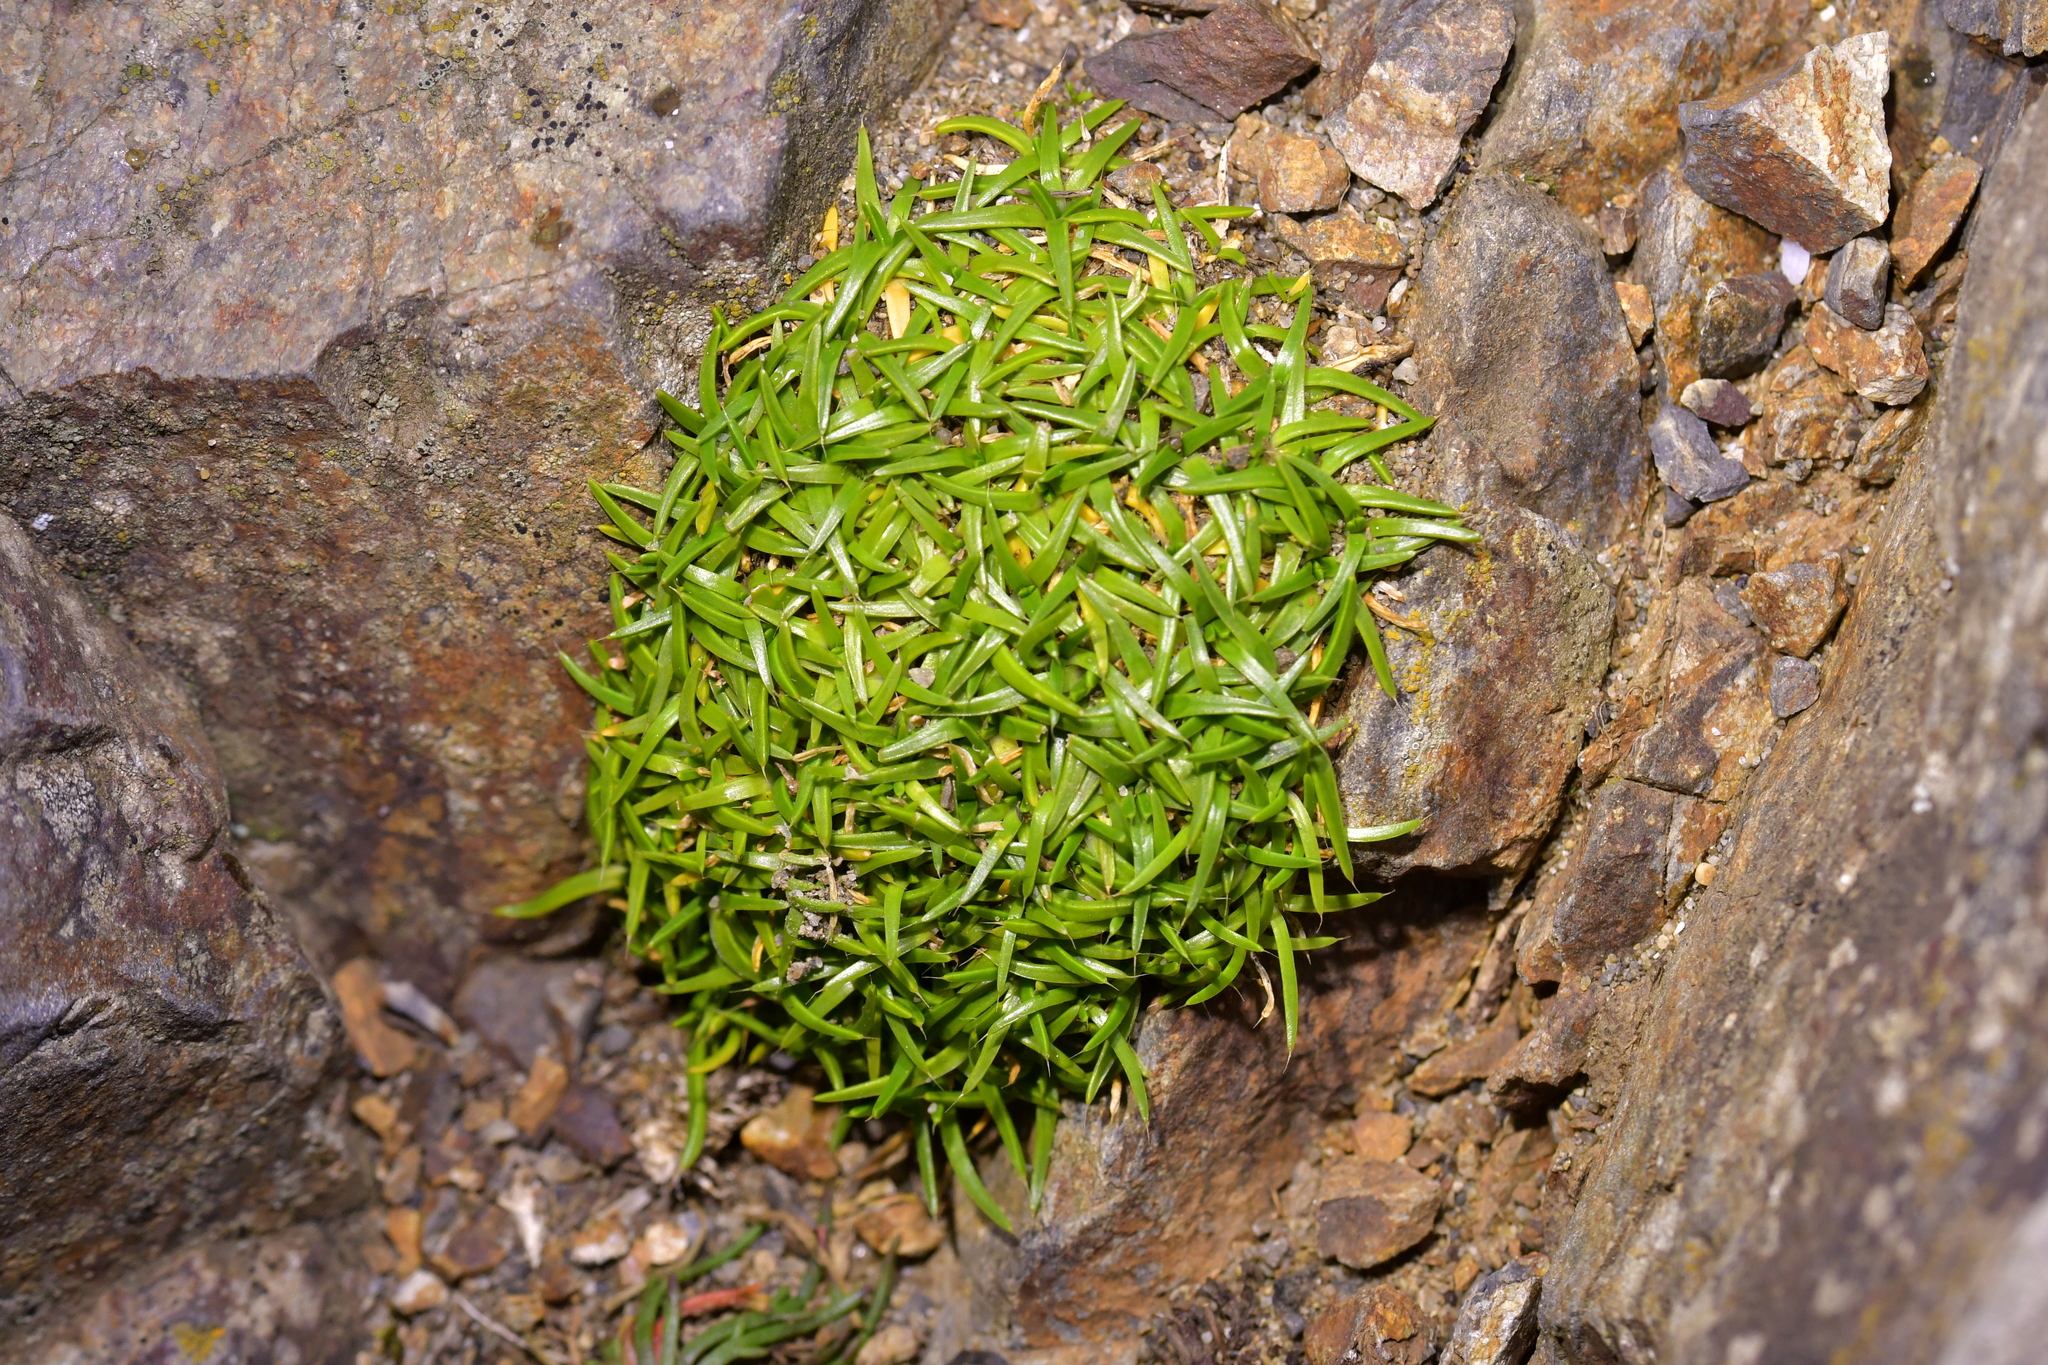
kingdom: Plantae
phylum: Tracheophyta
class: Magnoliopsida
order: Caryophyllales
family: Caryophyllaceae
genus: Colobanthus
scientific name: Colobanthus muelleri
